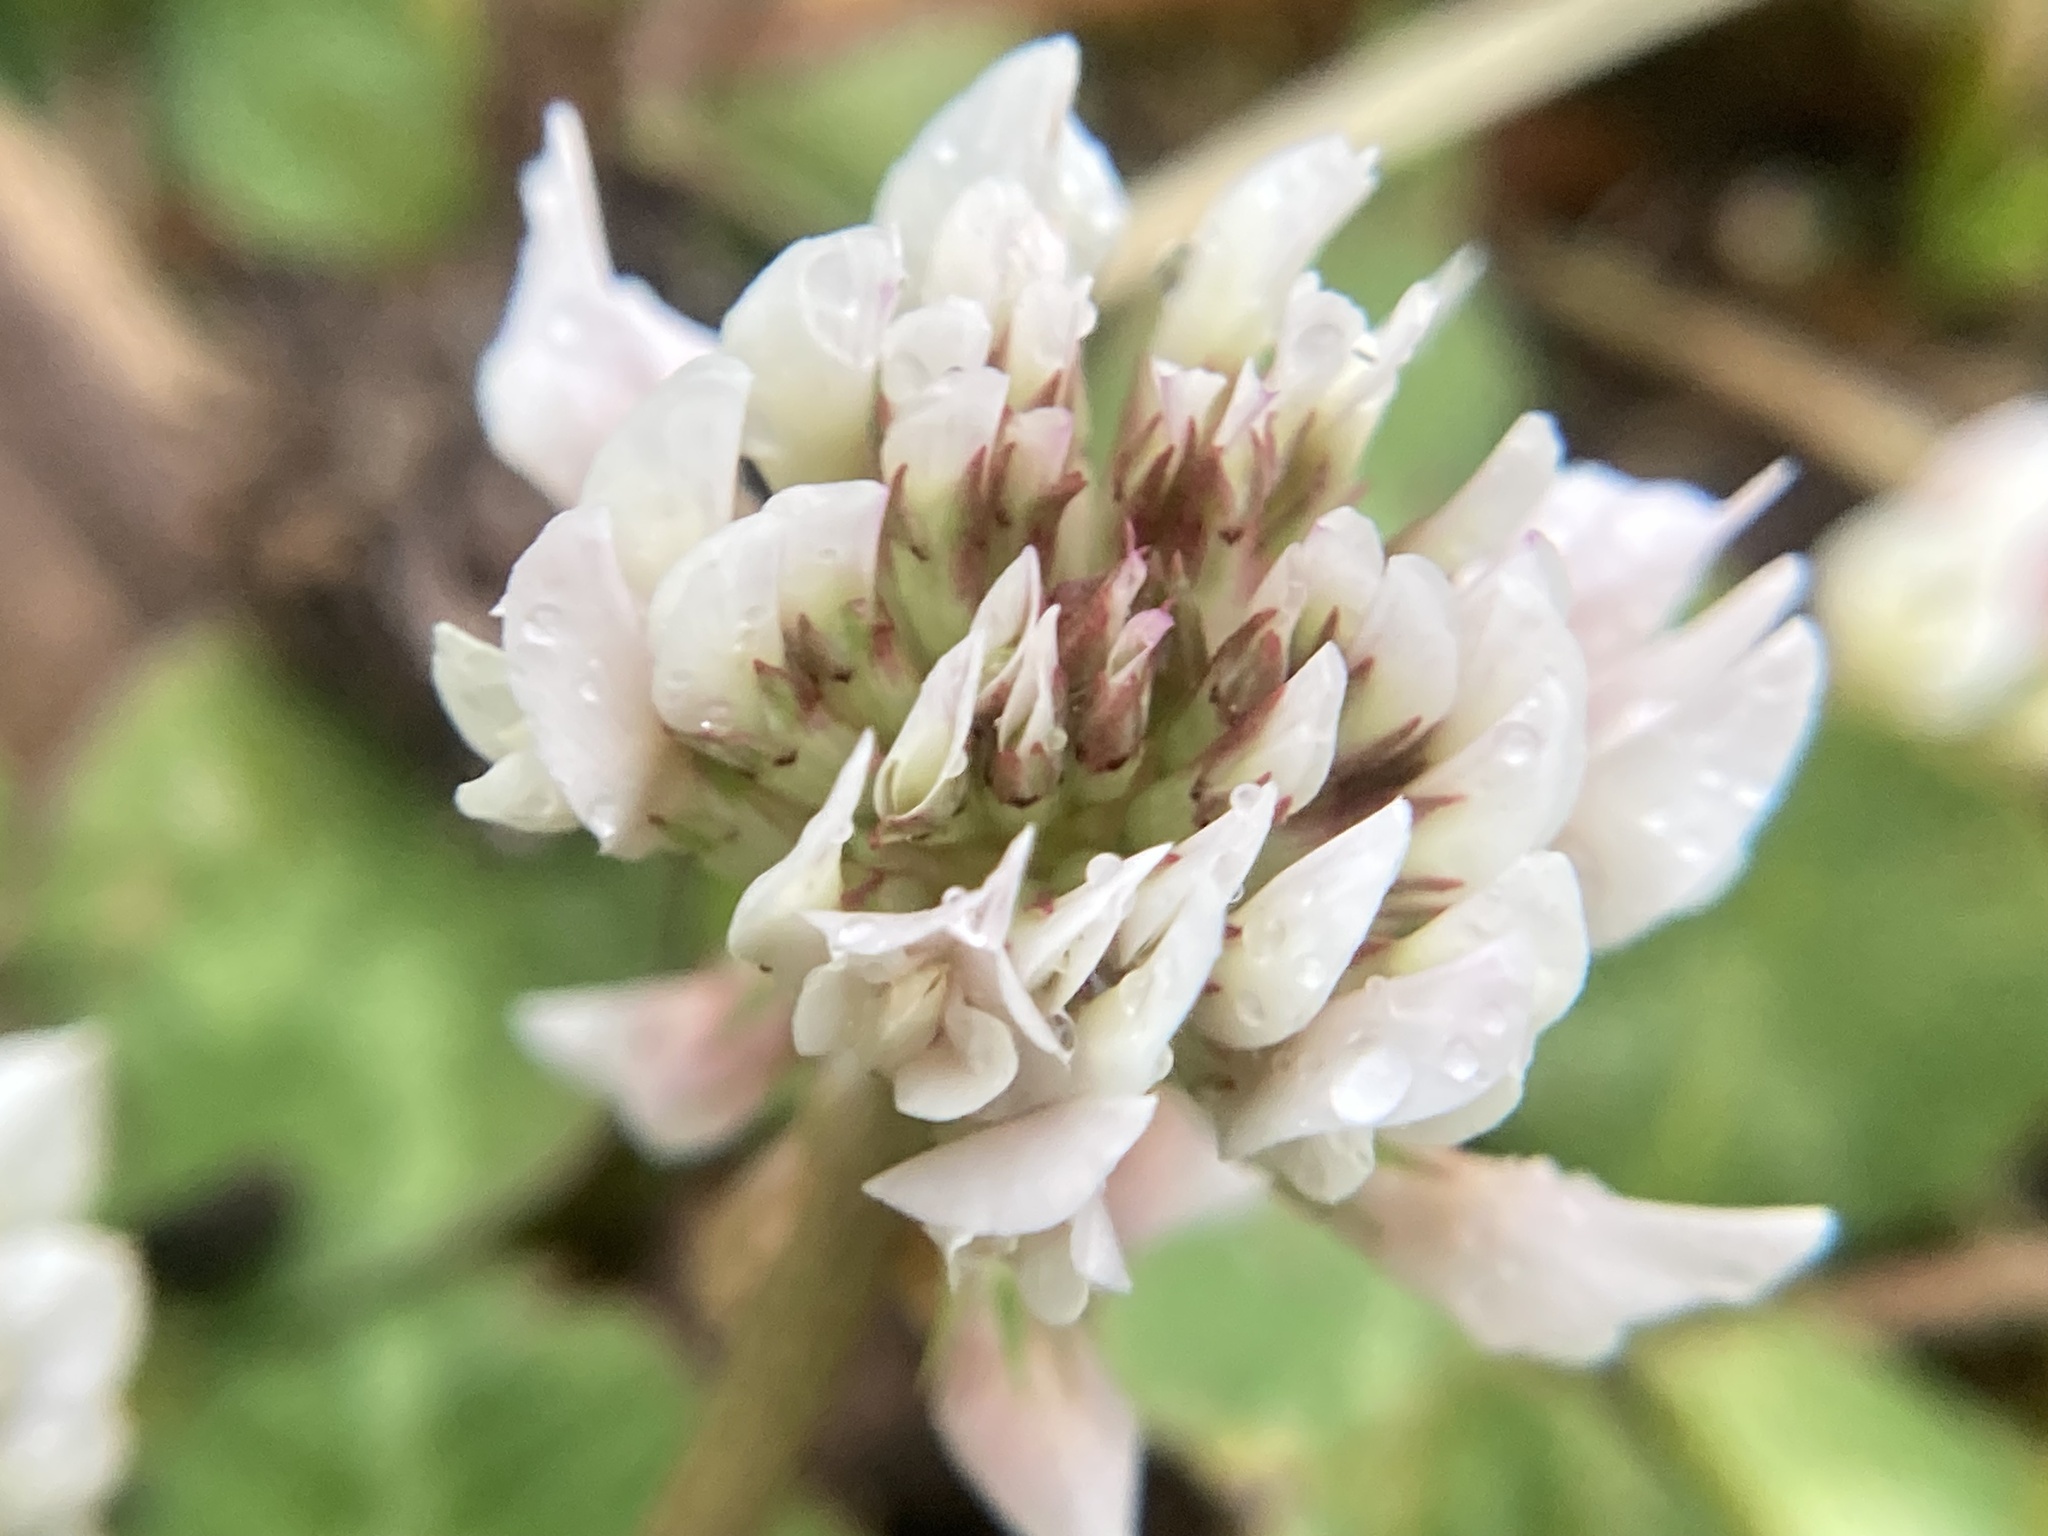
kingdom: Plantae
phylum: Tracheophyta
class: Magnoliopsida
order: Fabales
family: Fabaceae
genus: Trifolium
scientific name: Trifolium repens
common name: White clover
